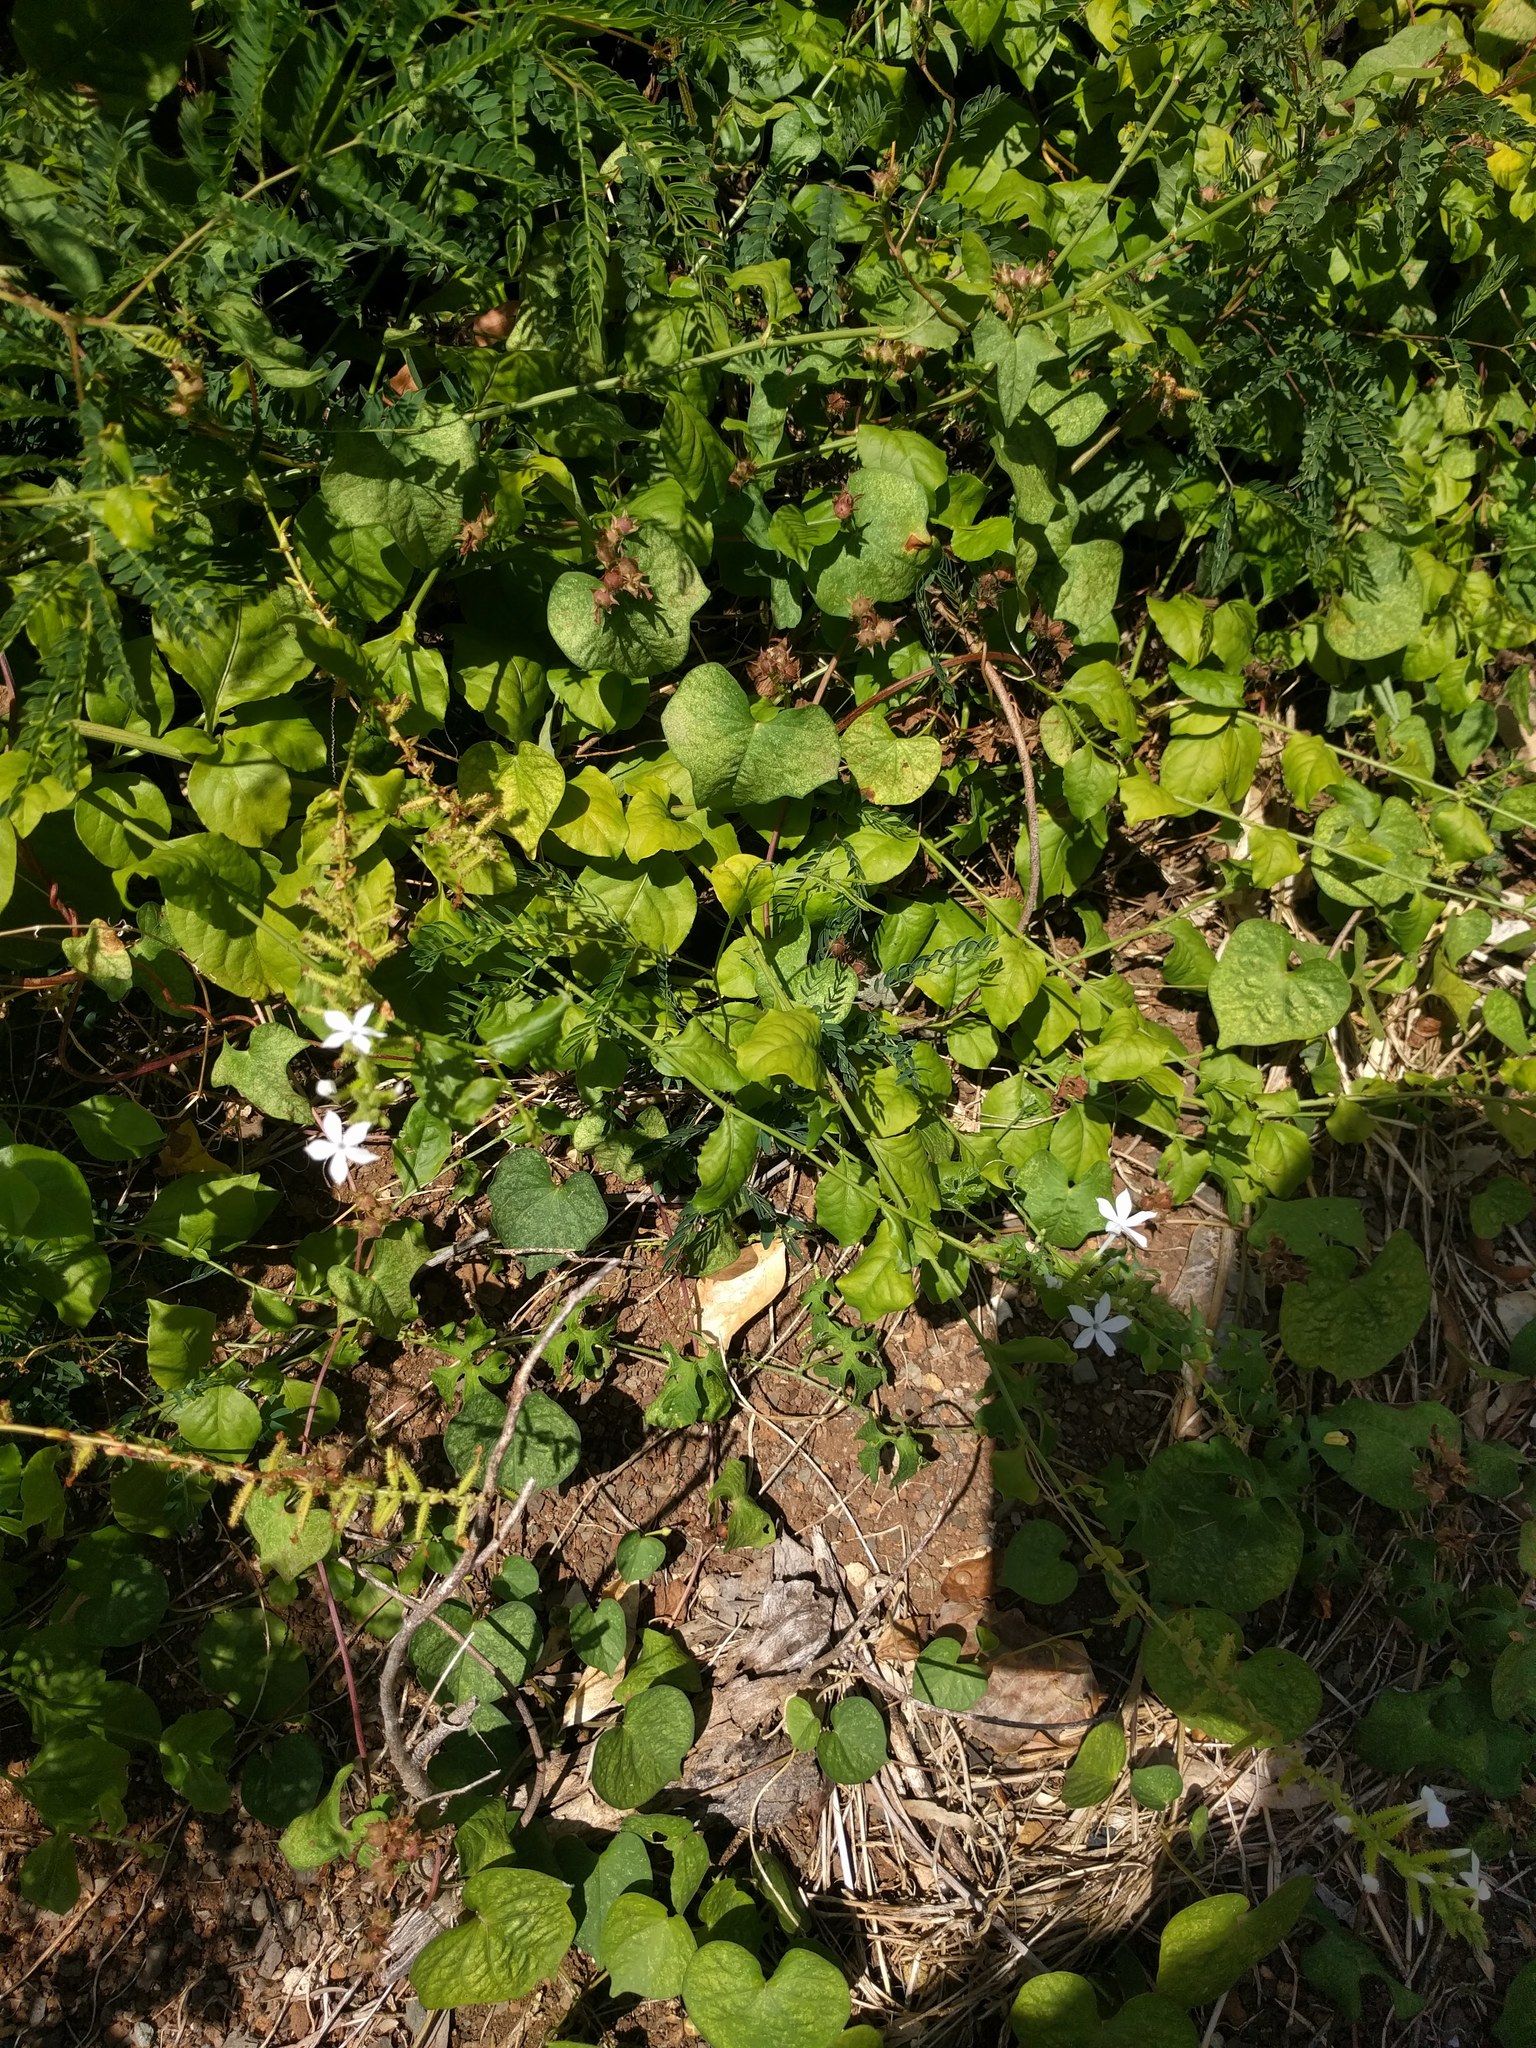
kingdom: Plantae
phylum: Tracheophyta
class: Magnoliopsida
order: Caryophyllales
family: Plumbaginaceae
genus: Plumbago
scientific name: Plumbago zeylanica
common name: Doctorbush
